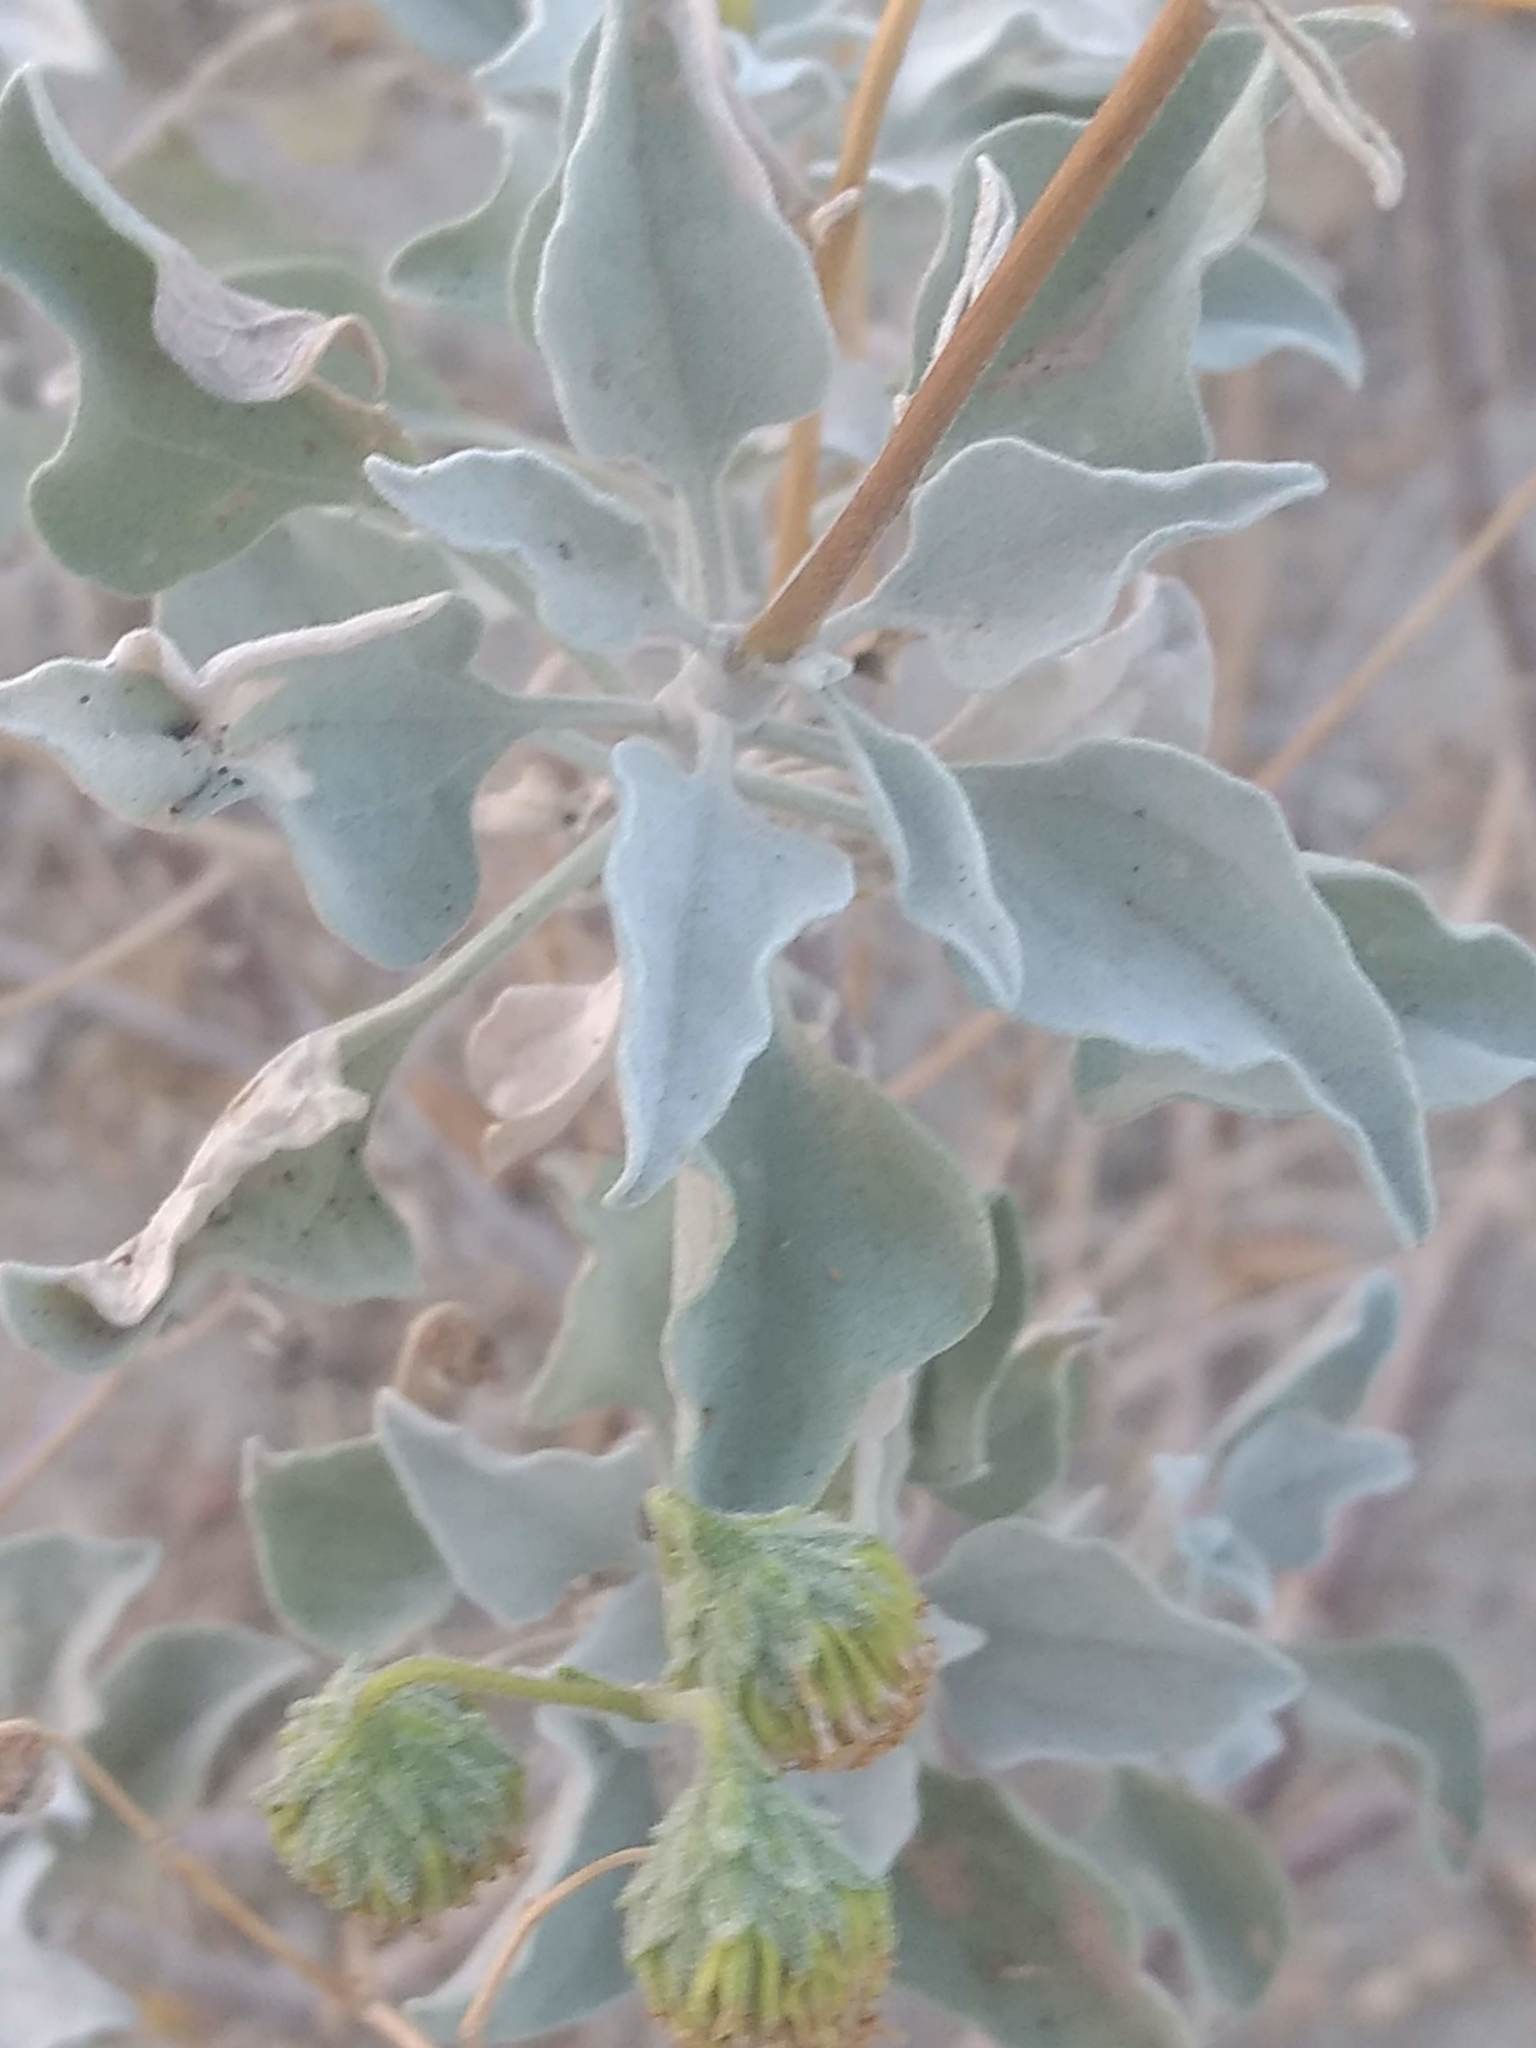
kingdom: Plantae
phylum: Tracheophyta
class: Magnoliopsida
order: Asterales
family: Asteraceae
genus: Encelia
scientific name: Encelia farinosa
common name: Brittlebush
